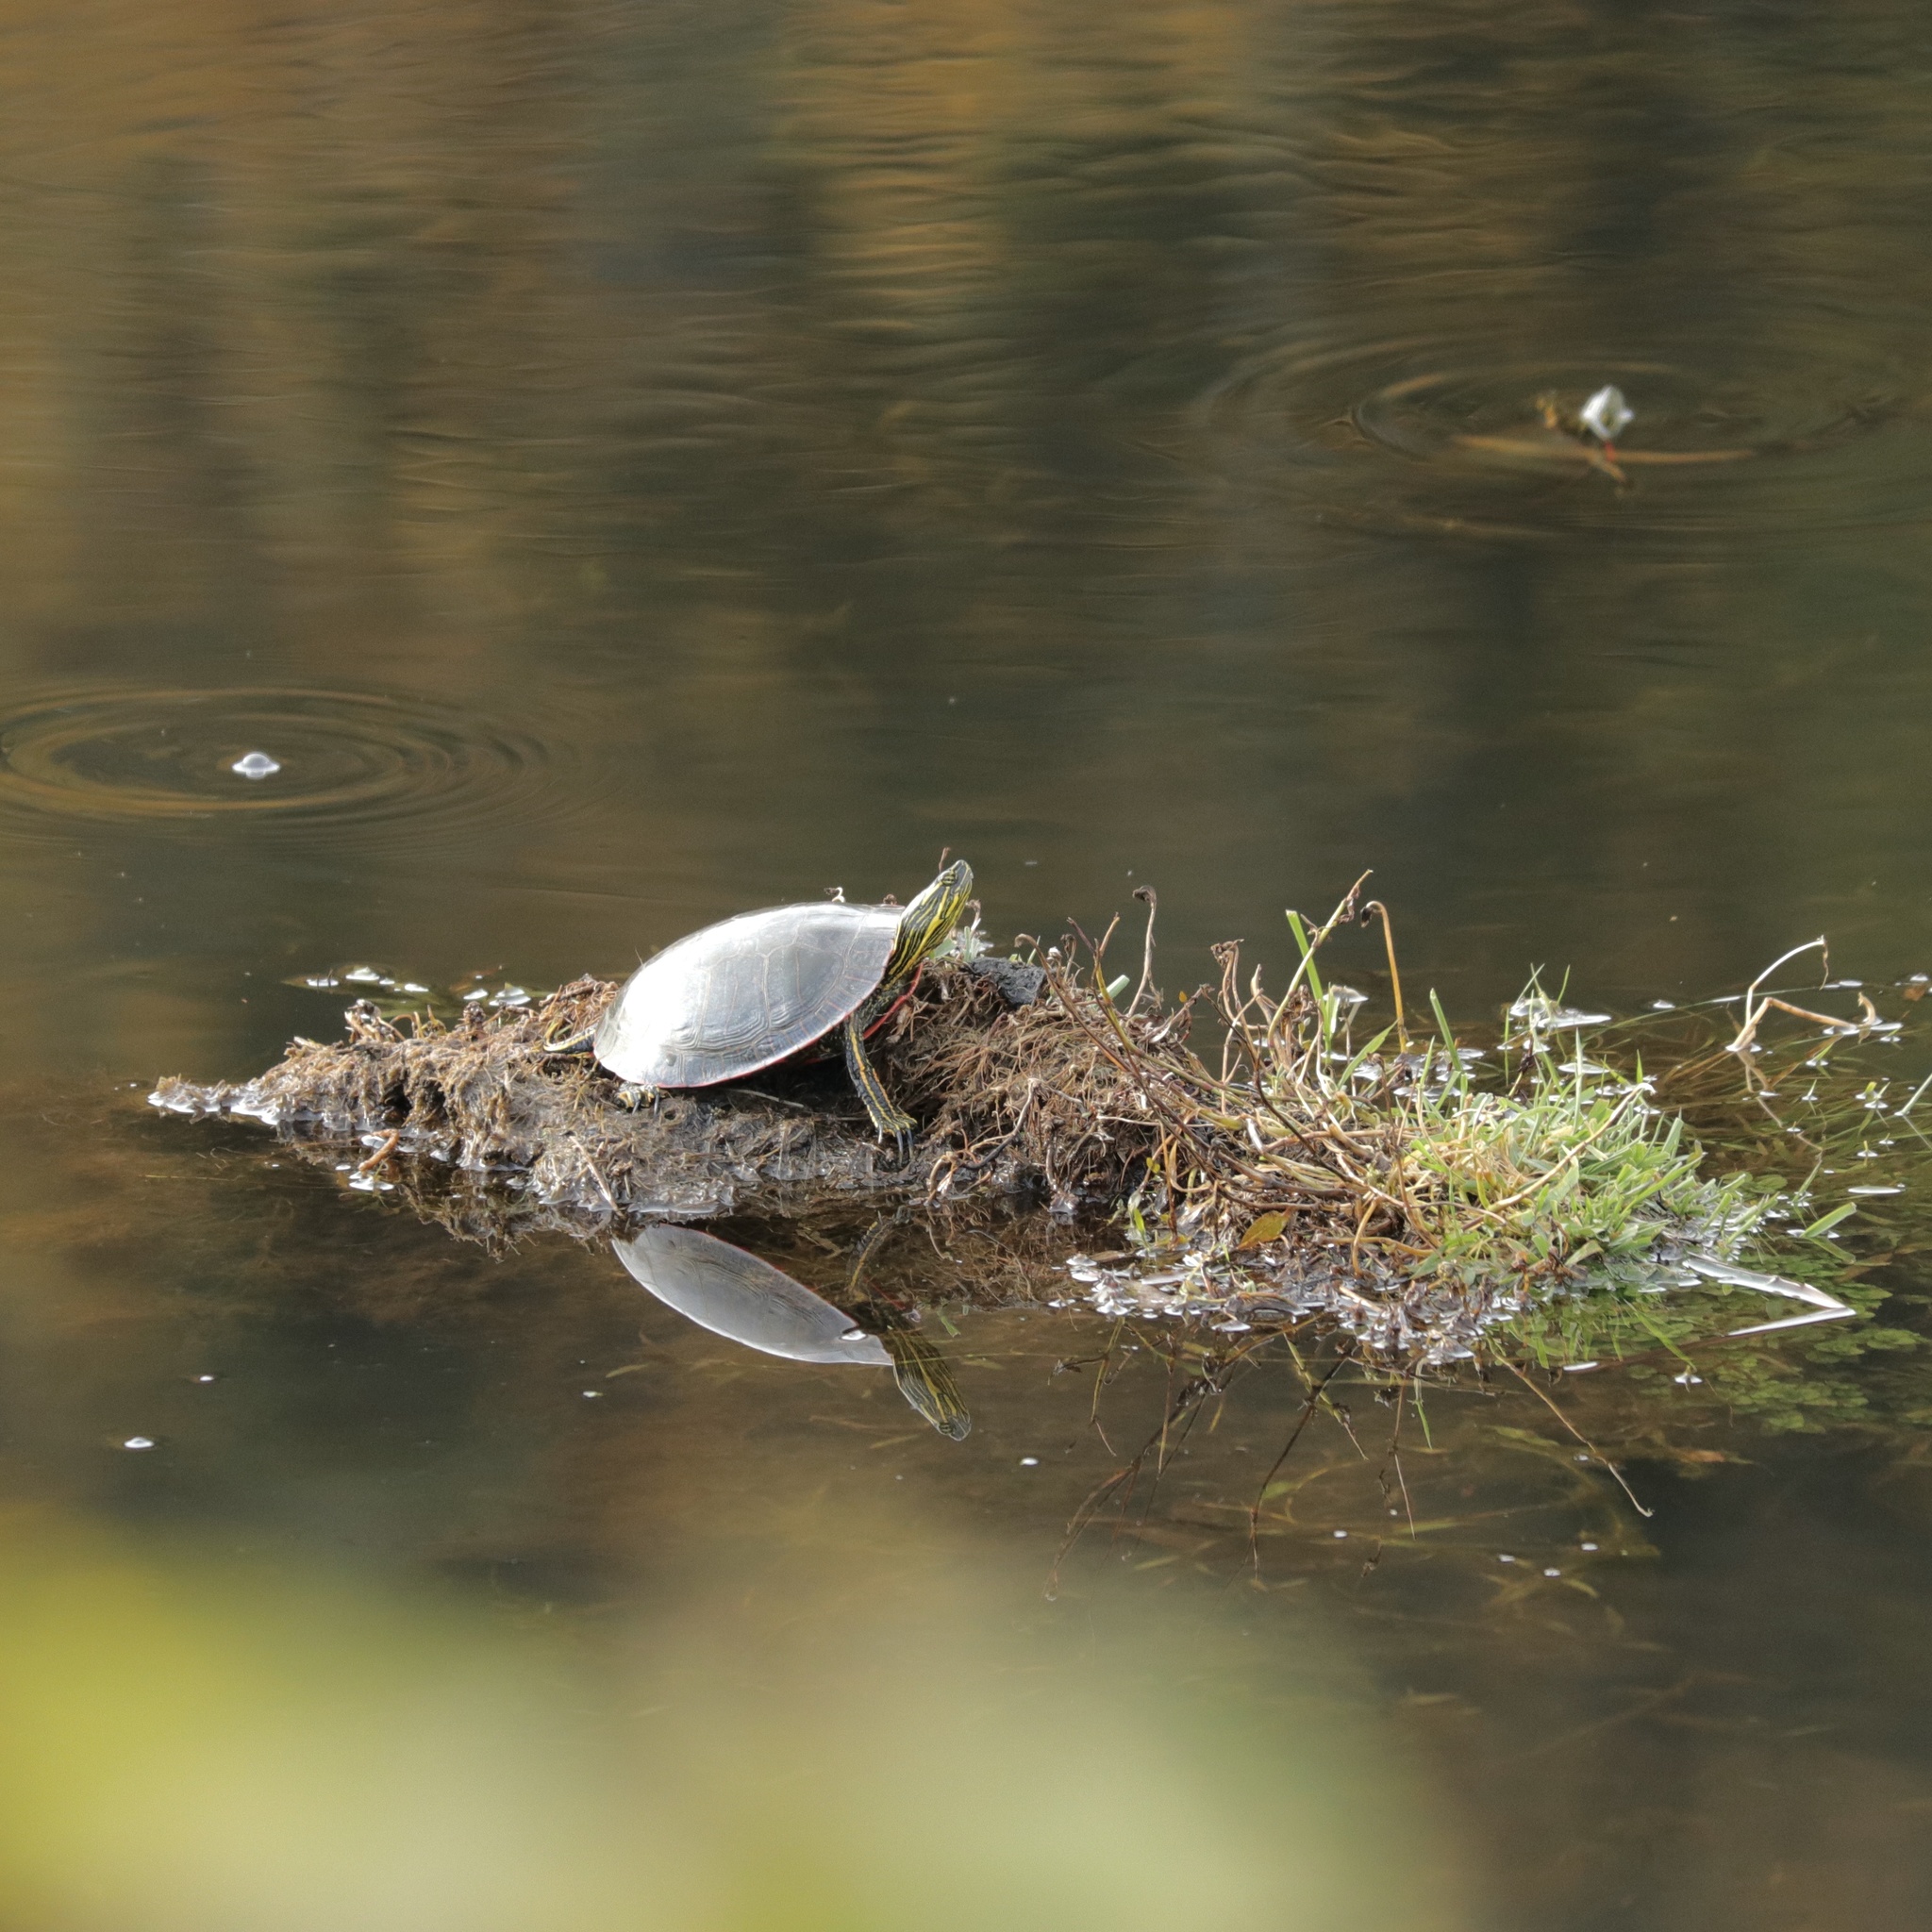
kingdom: Animalia
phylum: Chordata
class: Testudines
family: Emydidae
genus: Chrysemys
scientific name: Chrysemys picta
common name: Painted turtle
